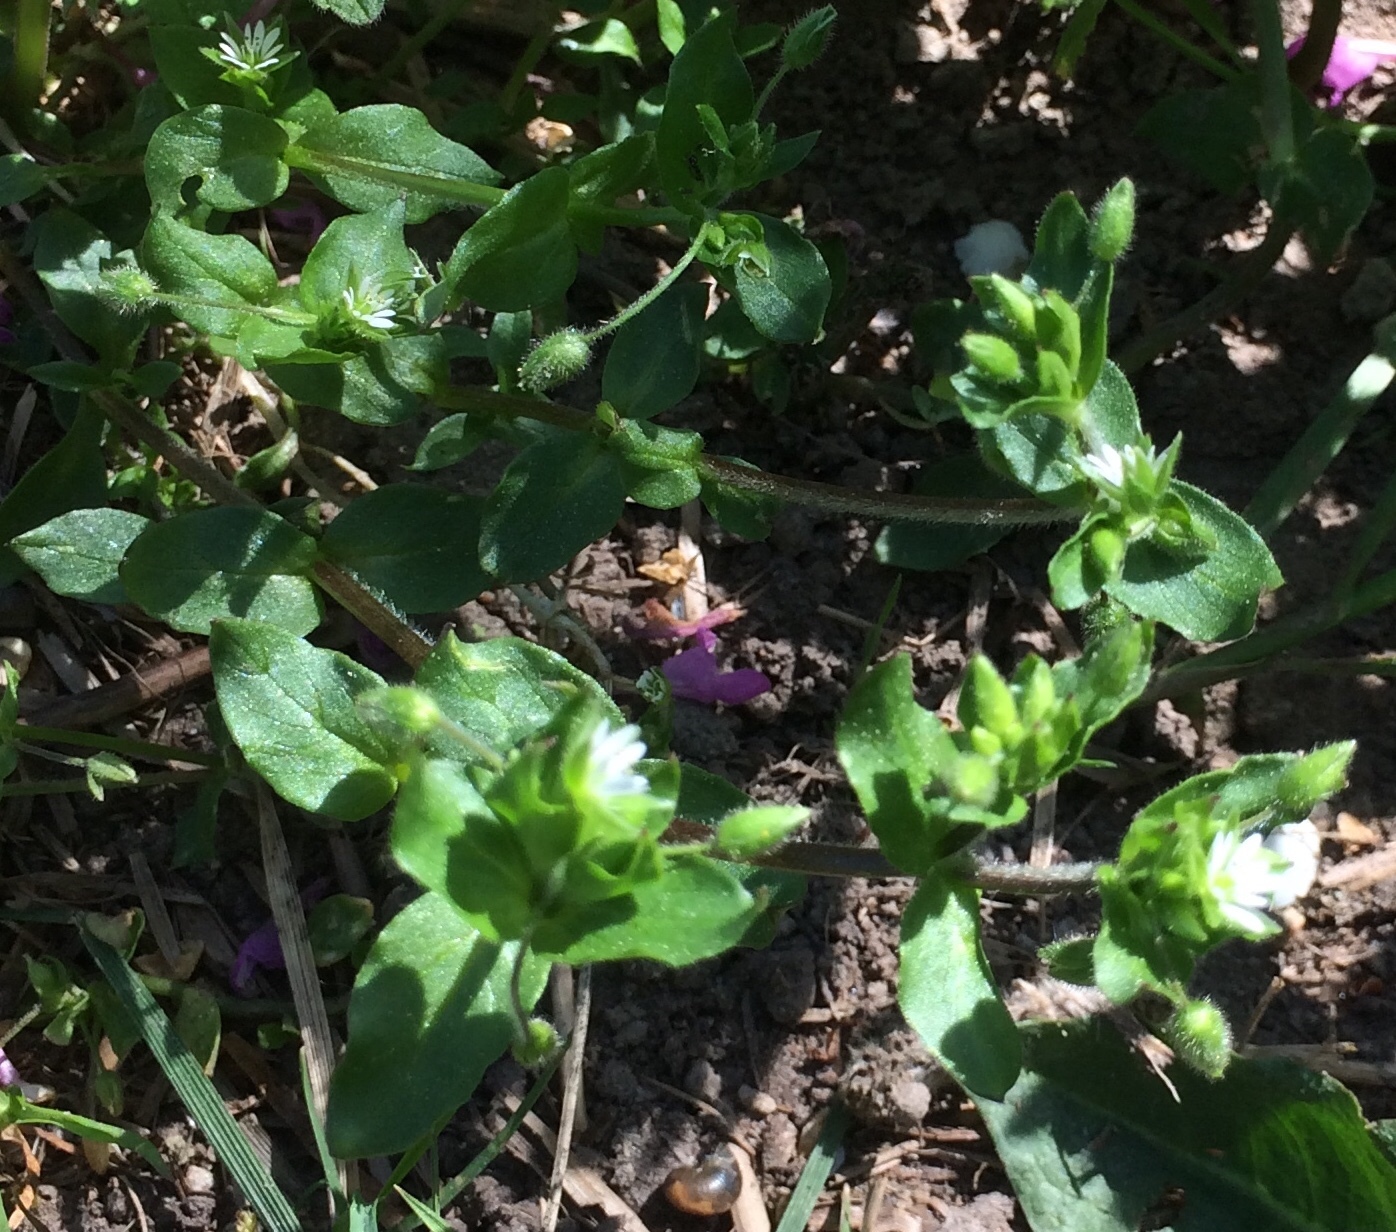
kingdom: Plantae
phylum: Tracheophyta
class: Magnoliopsida
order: Caryophyllales
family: Caryophyllaceae
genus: Stellaria
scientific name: Stellaria media
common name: Common chickweed
